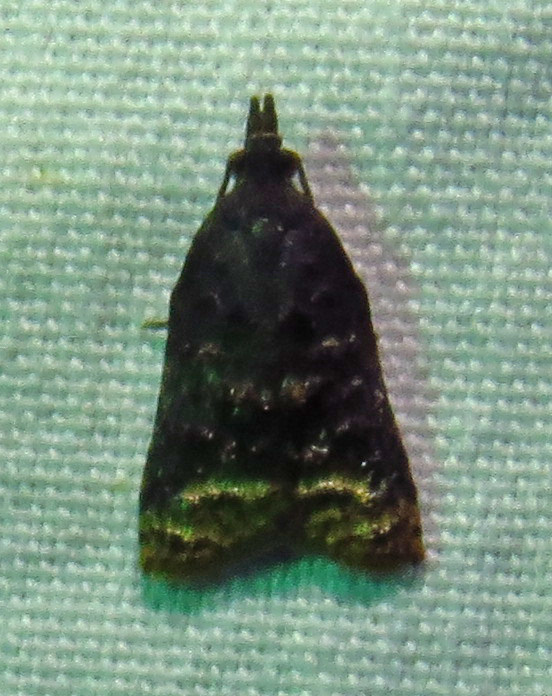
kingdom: Animalia
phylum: Arthropoda
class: Insecta
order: Lepidoptera
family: Tortricidae
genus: Platynota
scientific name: Platynota semiustana
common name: Singed platynota
